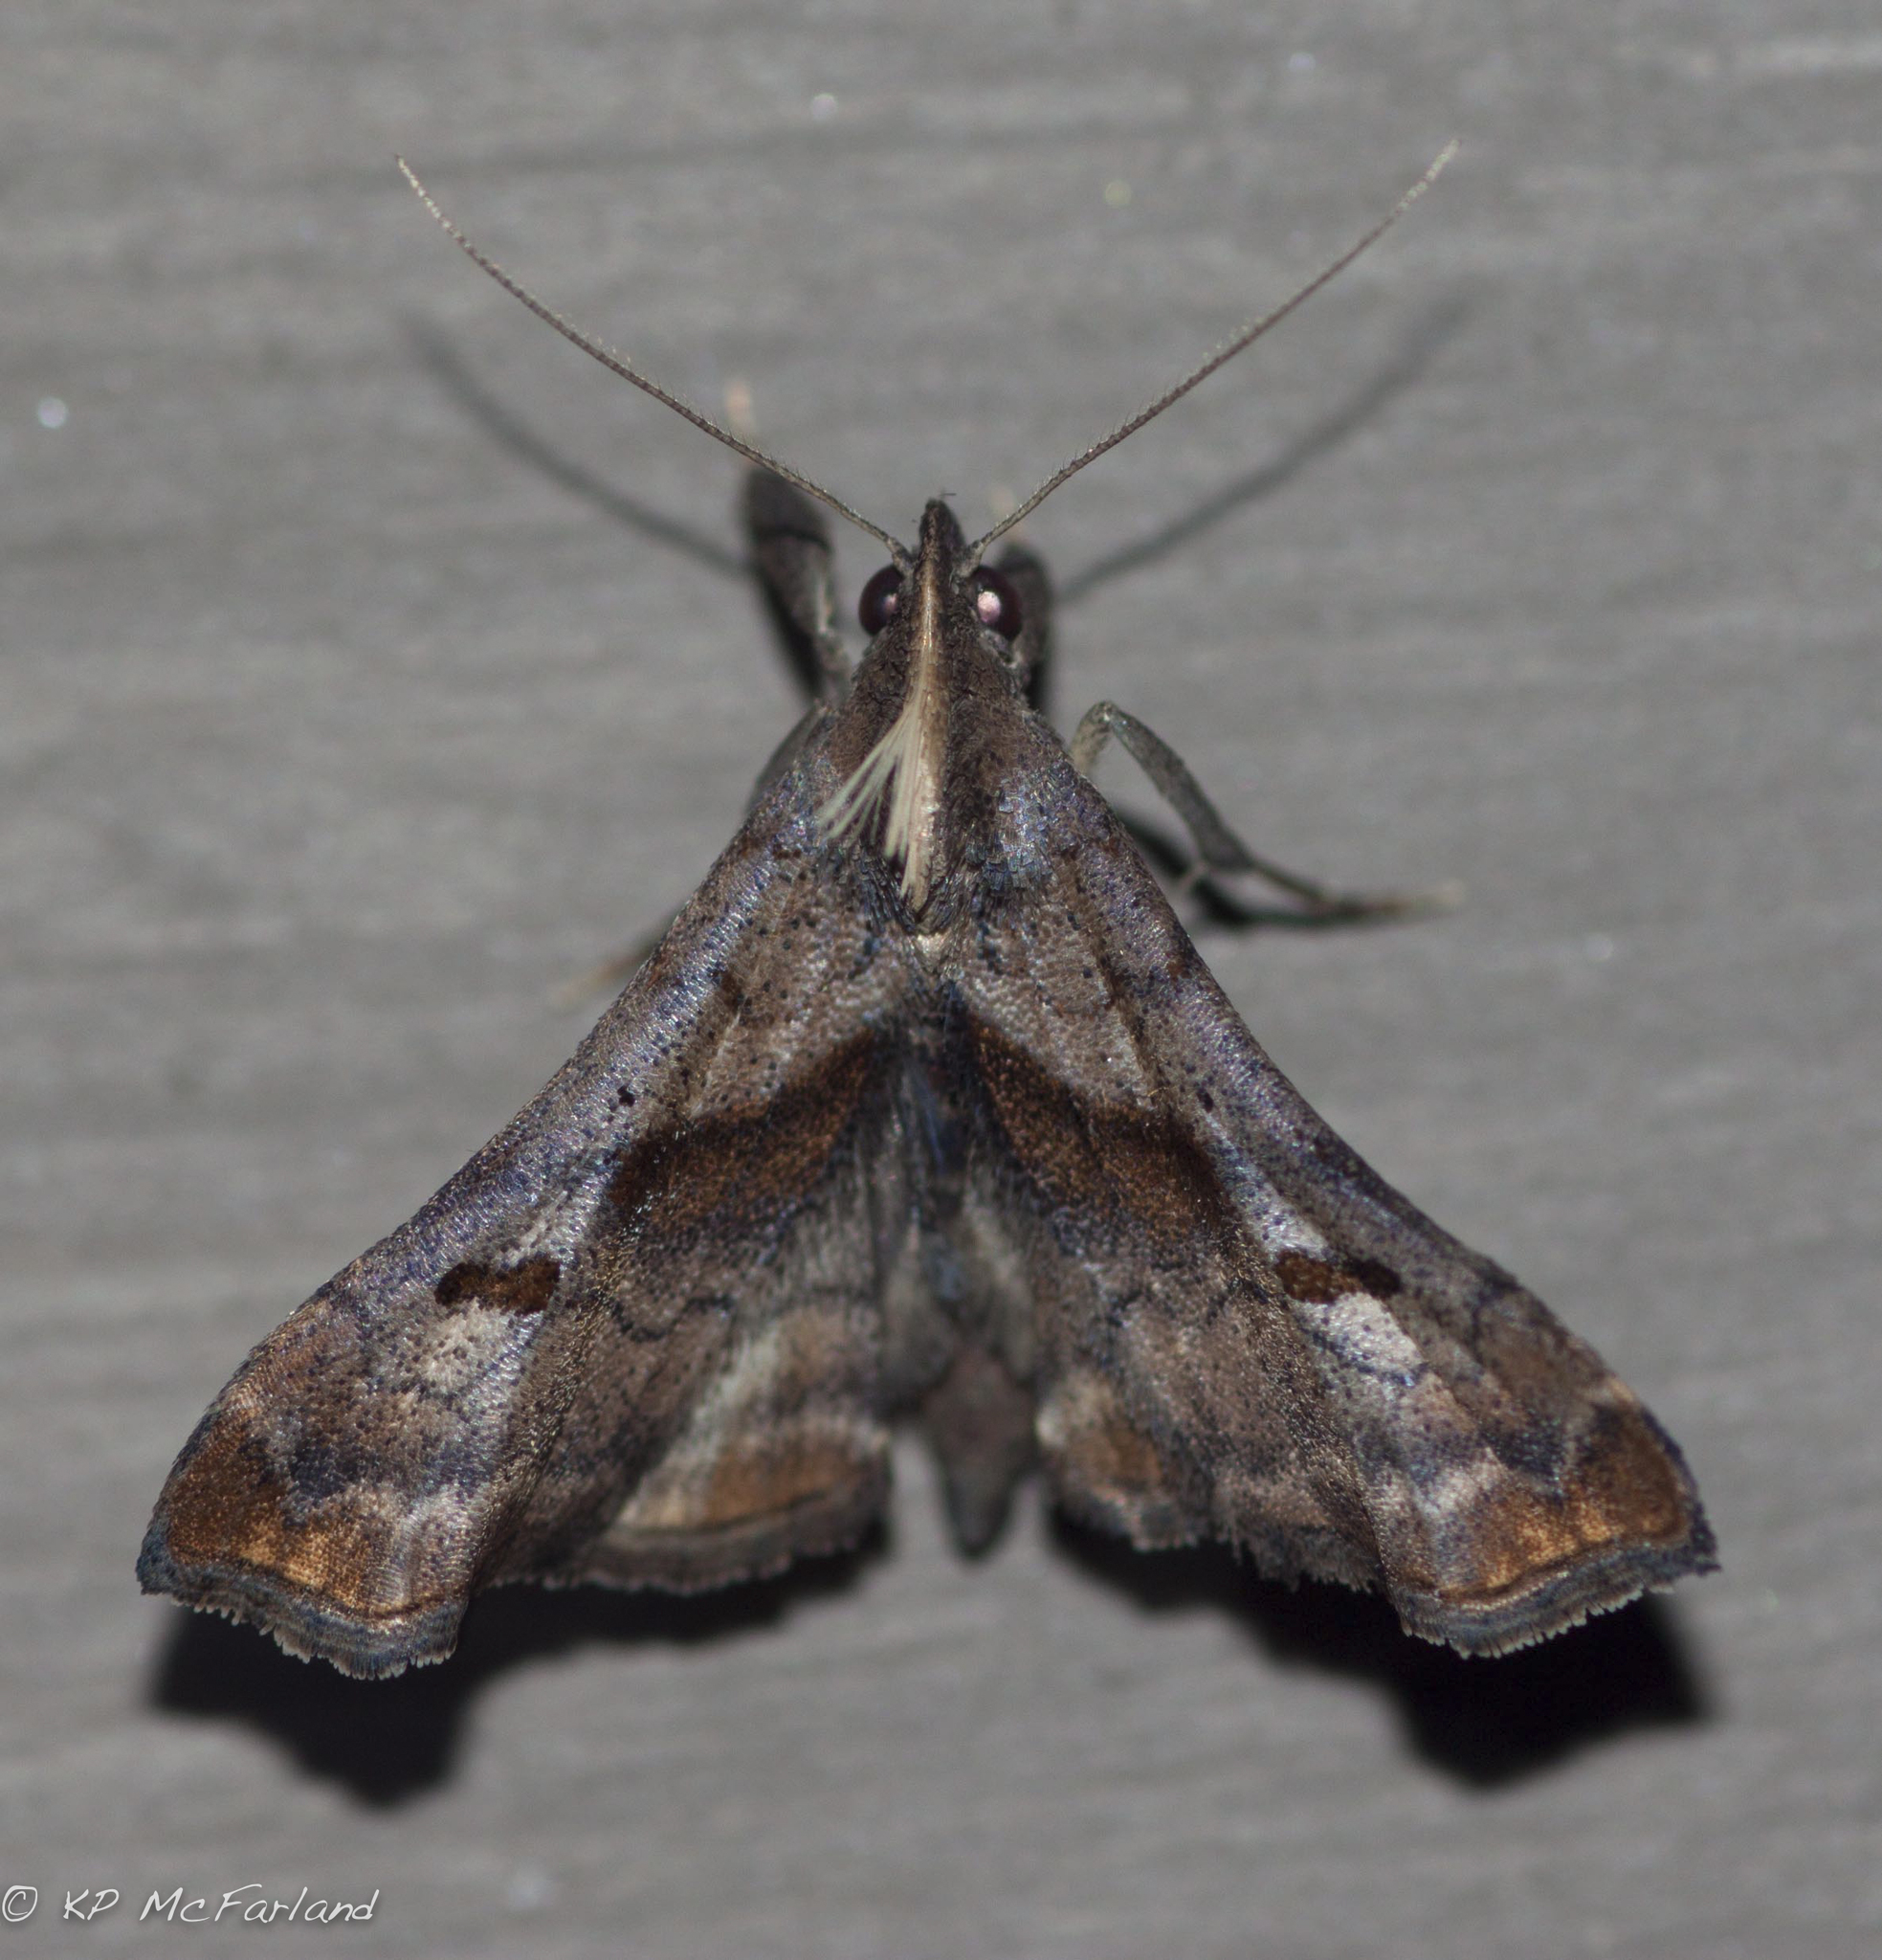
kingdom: Animalia
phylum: Arthropoda
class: Insecta
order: Lepidoptera
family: Erebidae
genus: Palthis
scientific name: Palthis angulalis
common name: Dark-spotted palthis moth
